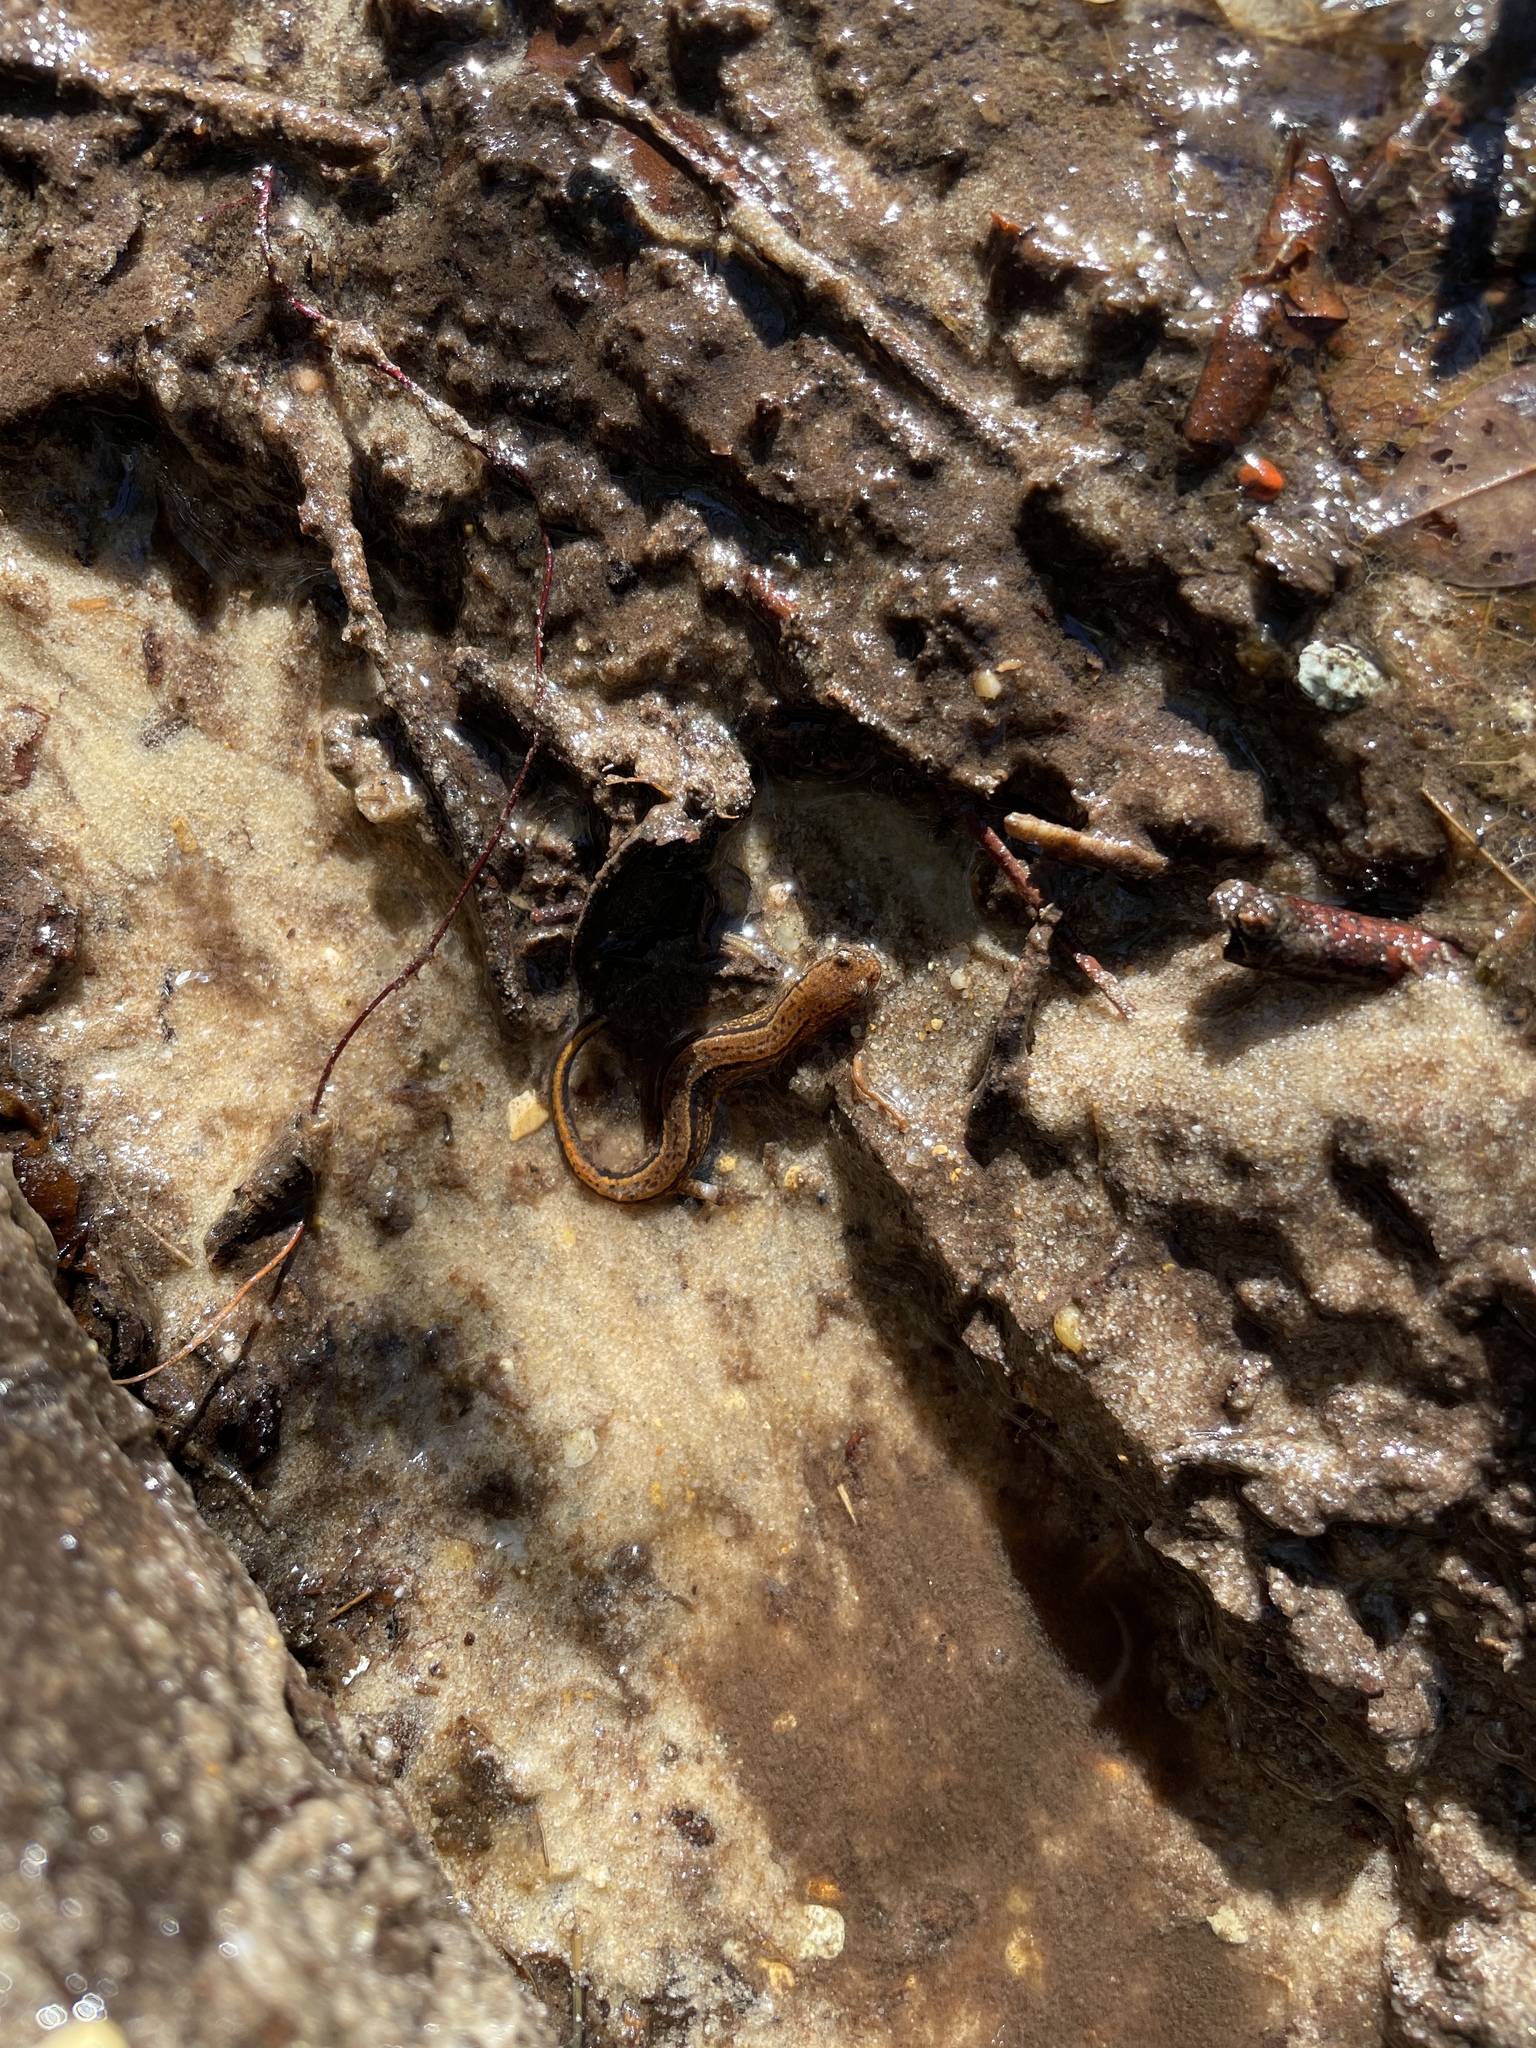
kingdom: Animalia
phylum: Chordata
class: Amphibia
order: Caudata
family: Plethodontidae
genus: Eurycea
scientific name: Eurycea cirrigera
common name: Southern two-lined salamander
